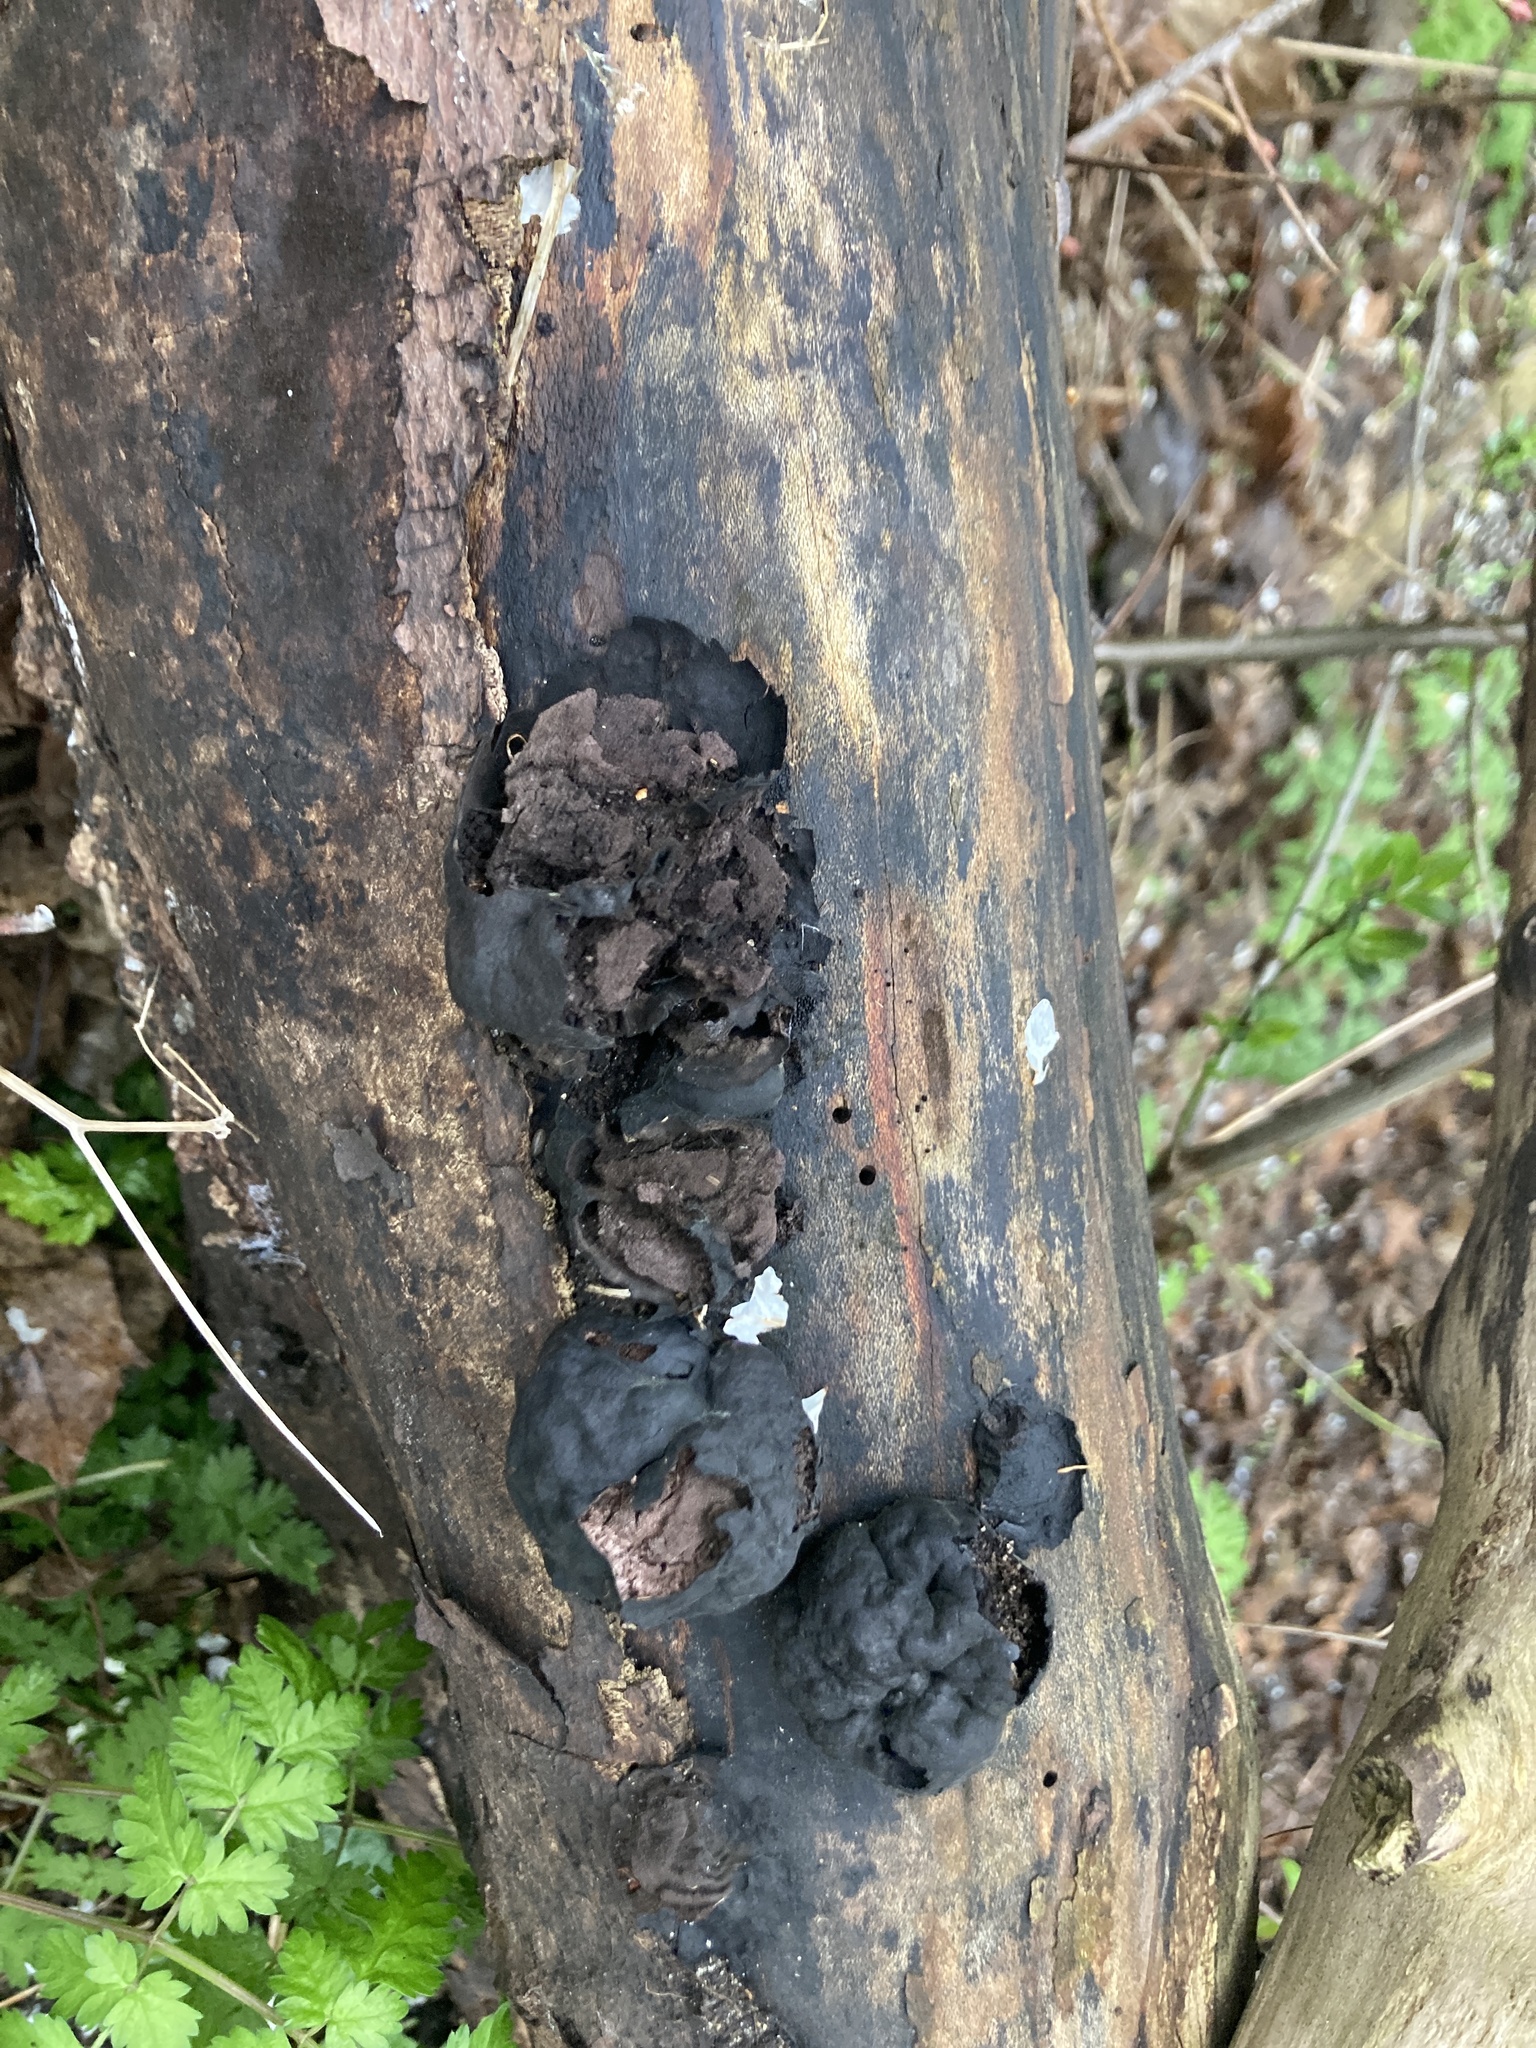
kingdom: Fungi
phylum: Ascomycota
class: Sordariomycetes
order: Xylariales
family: Hypoxylaceae
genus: Daldinia
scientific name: Daldinia concentrica
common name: Cramp balls
